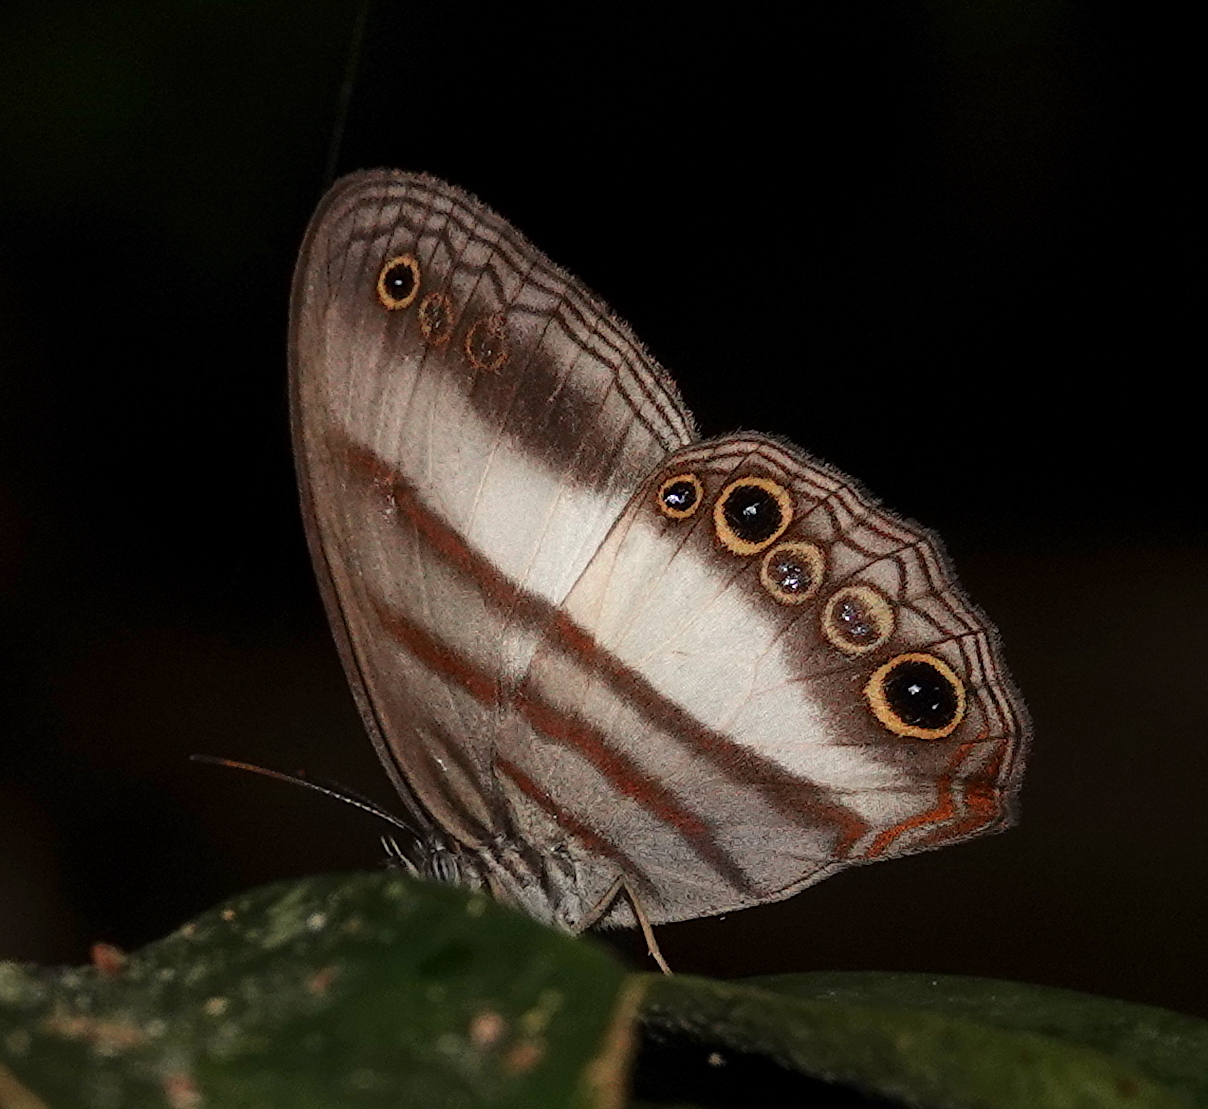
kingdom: Animalia
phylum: Arthropoda
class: Insecta
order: Lepidoptera
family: Nymphalidae
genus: Pareuptychia
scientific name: Pareuptychia metaleuca
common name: White-banded satyr
